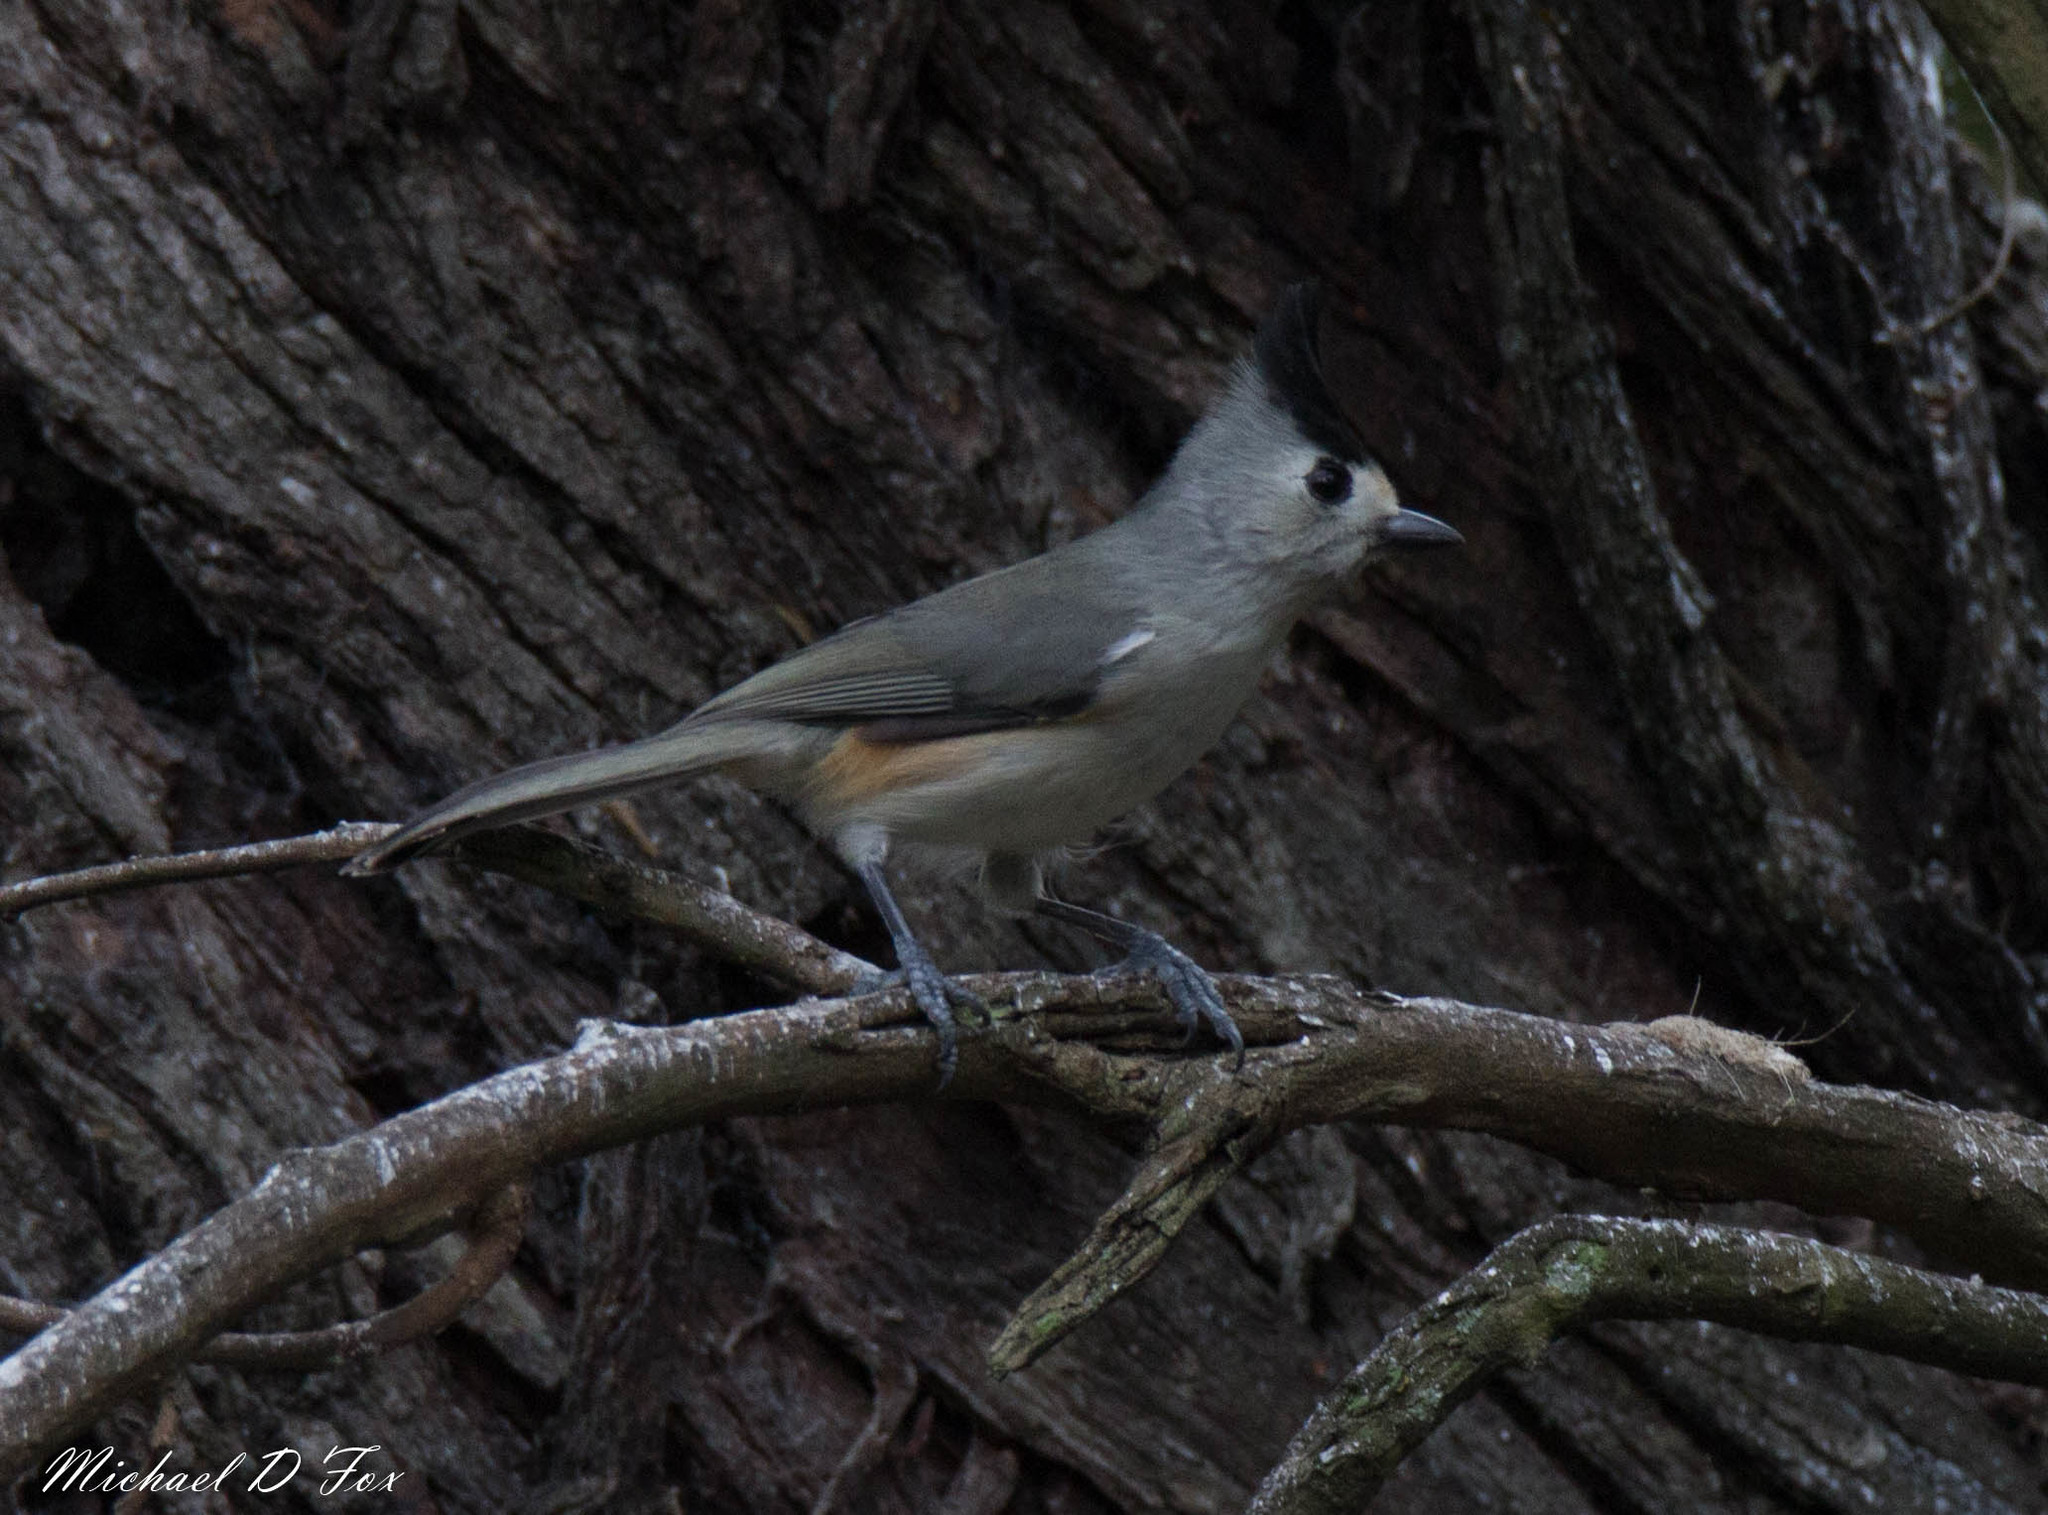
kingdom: Animalia
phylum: Chordata
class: Aves
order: Passeriformes
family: Paridae
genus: Baeolophus
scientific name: Baeolophus atricristatus
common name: Black-crested titmouse
